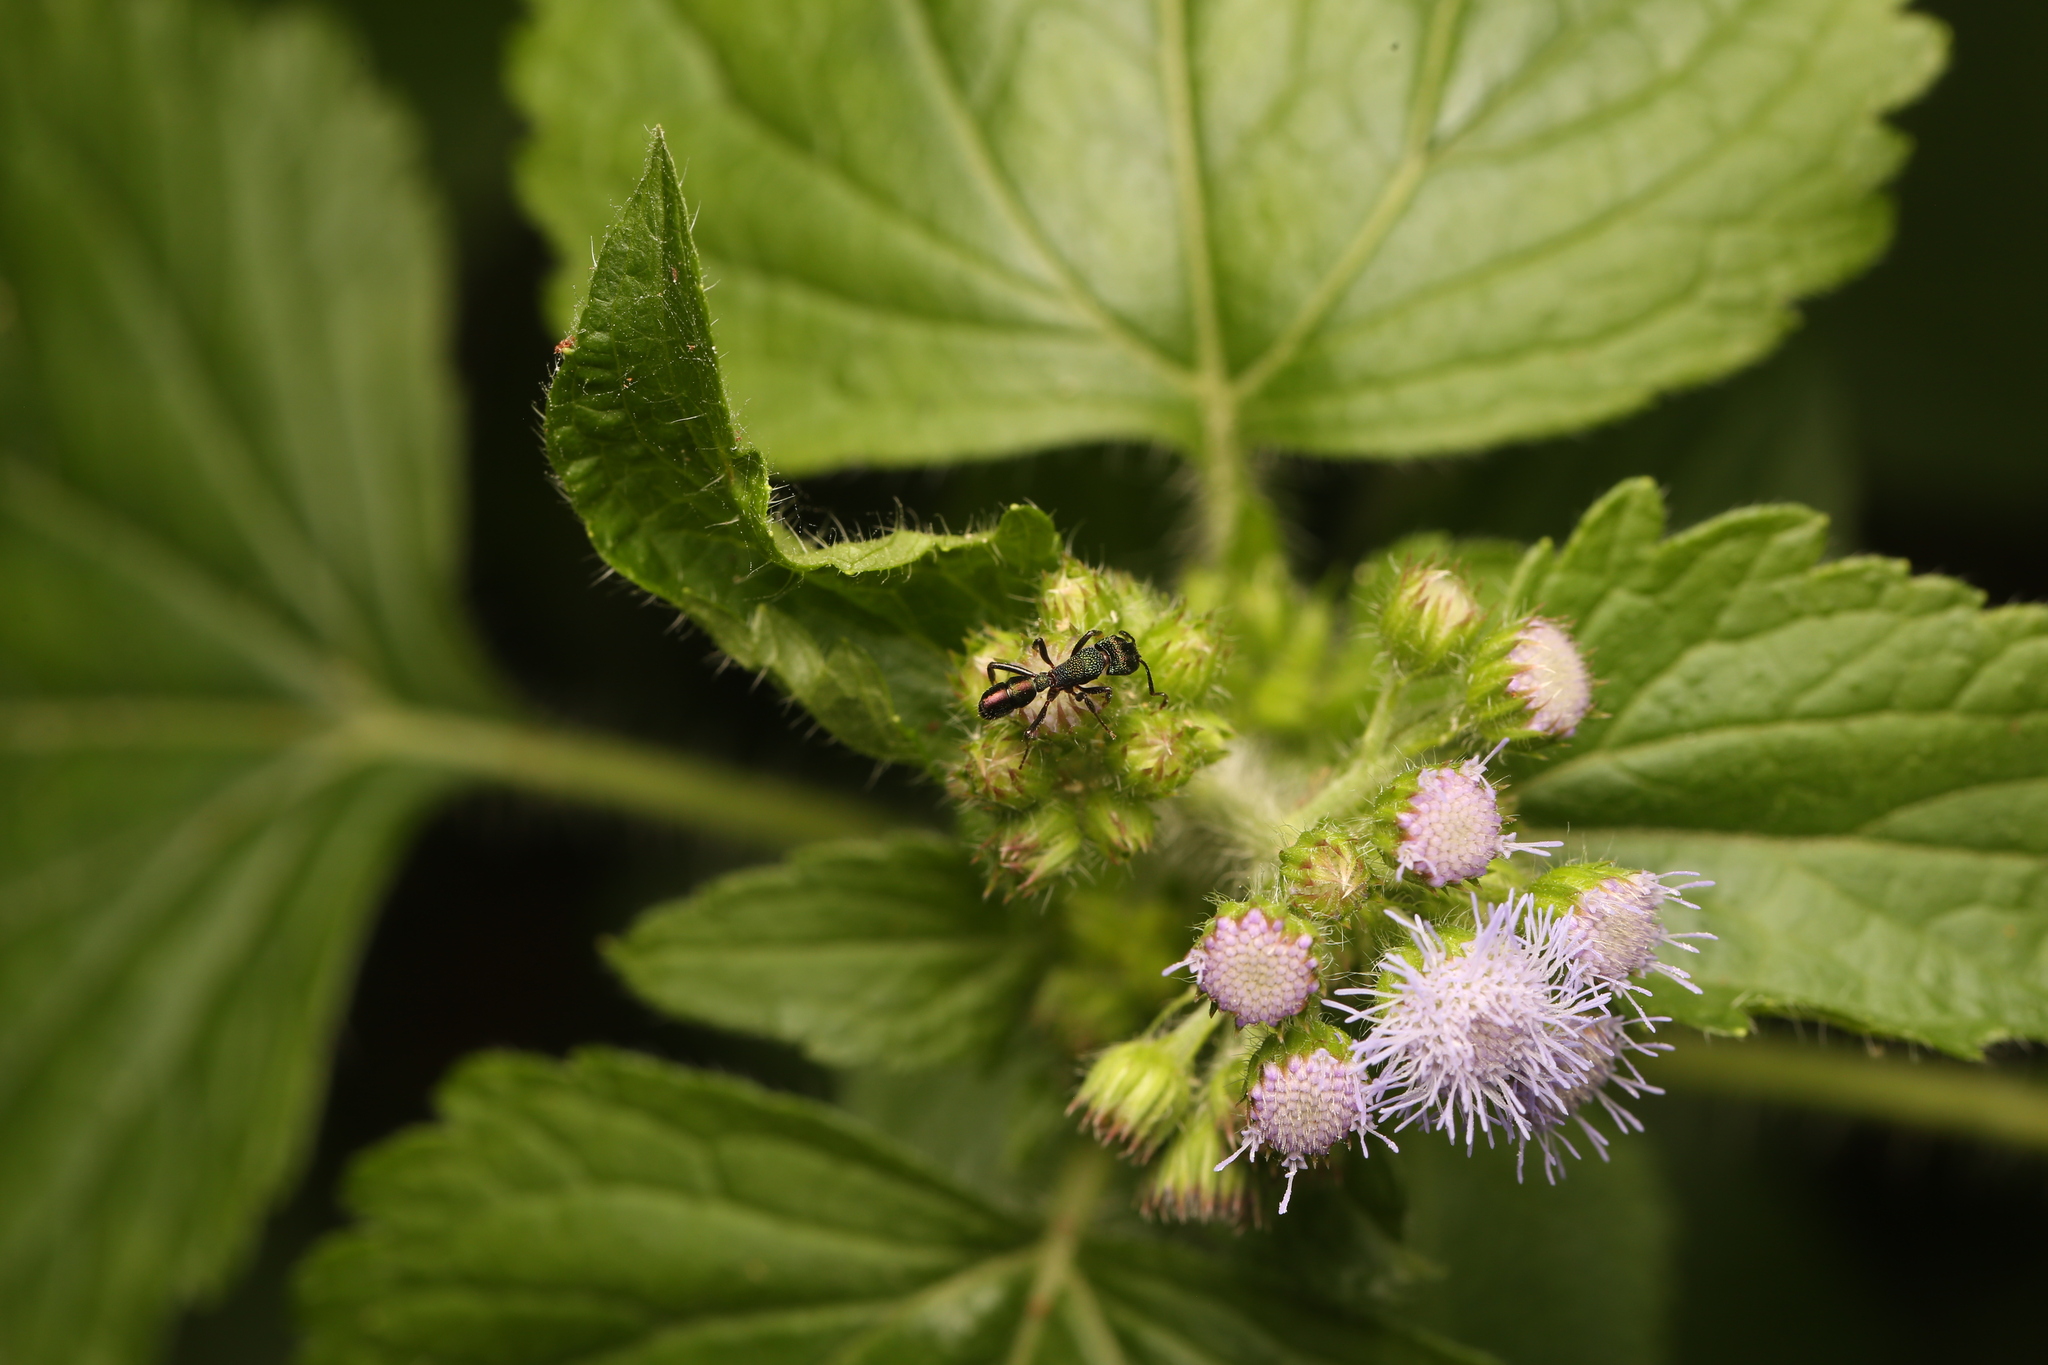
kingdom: Animalia
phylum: Arthropoda
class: Insecta
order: Hymenoptera
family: Formicidae
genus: Rhytidoponera
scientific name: Rhytidoponera metallica
